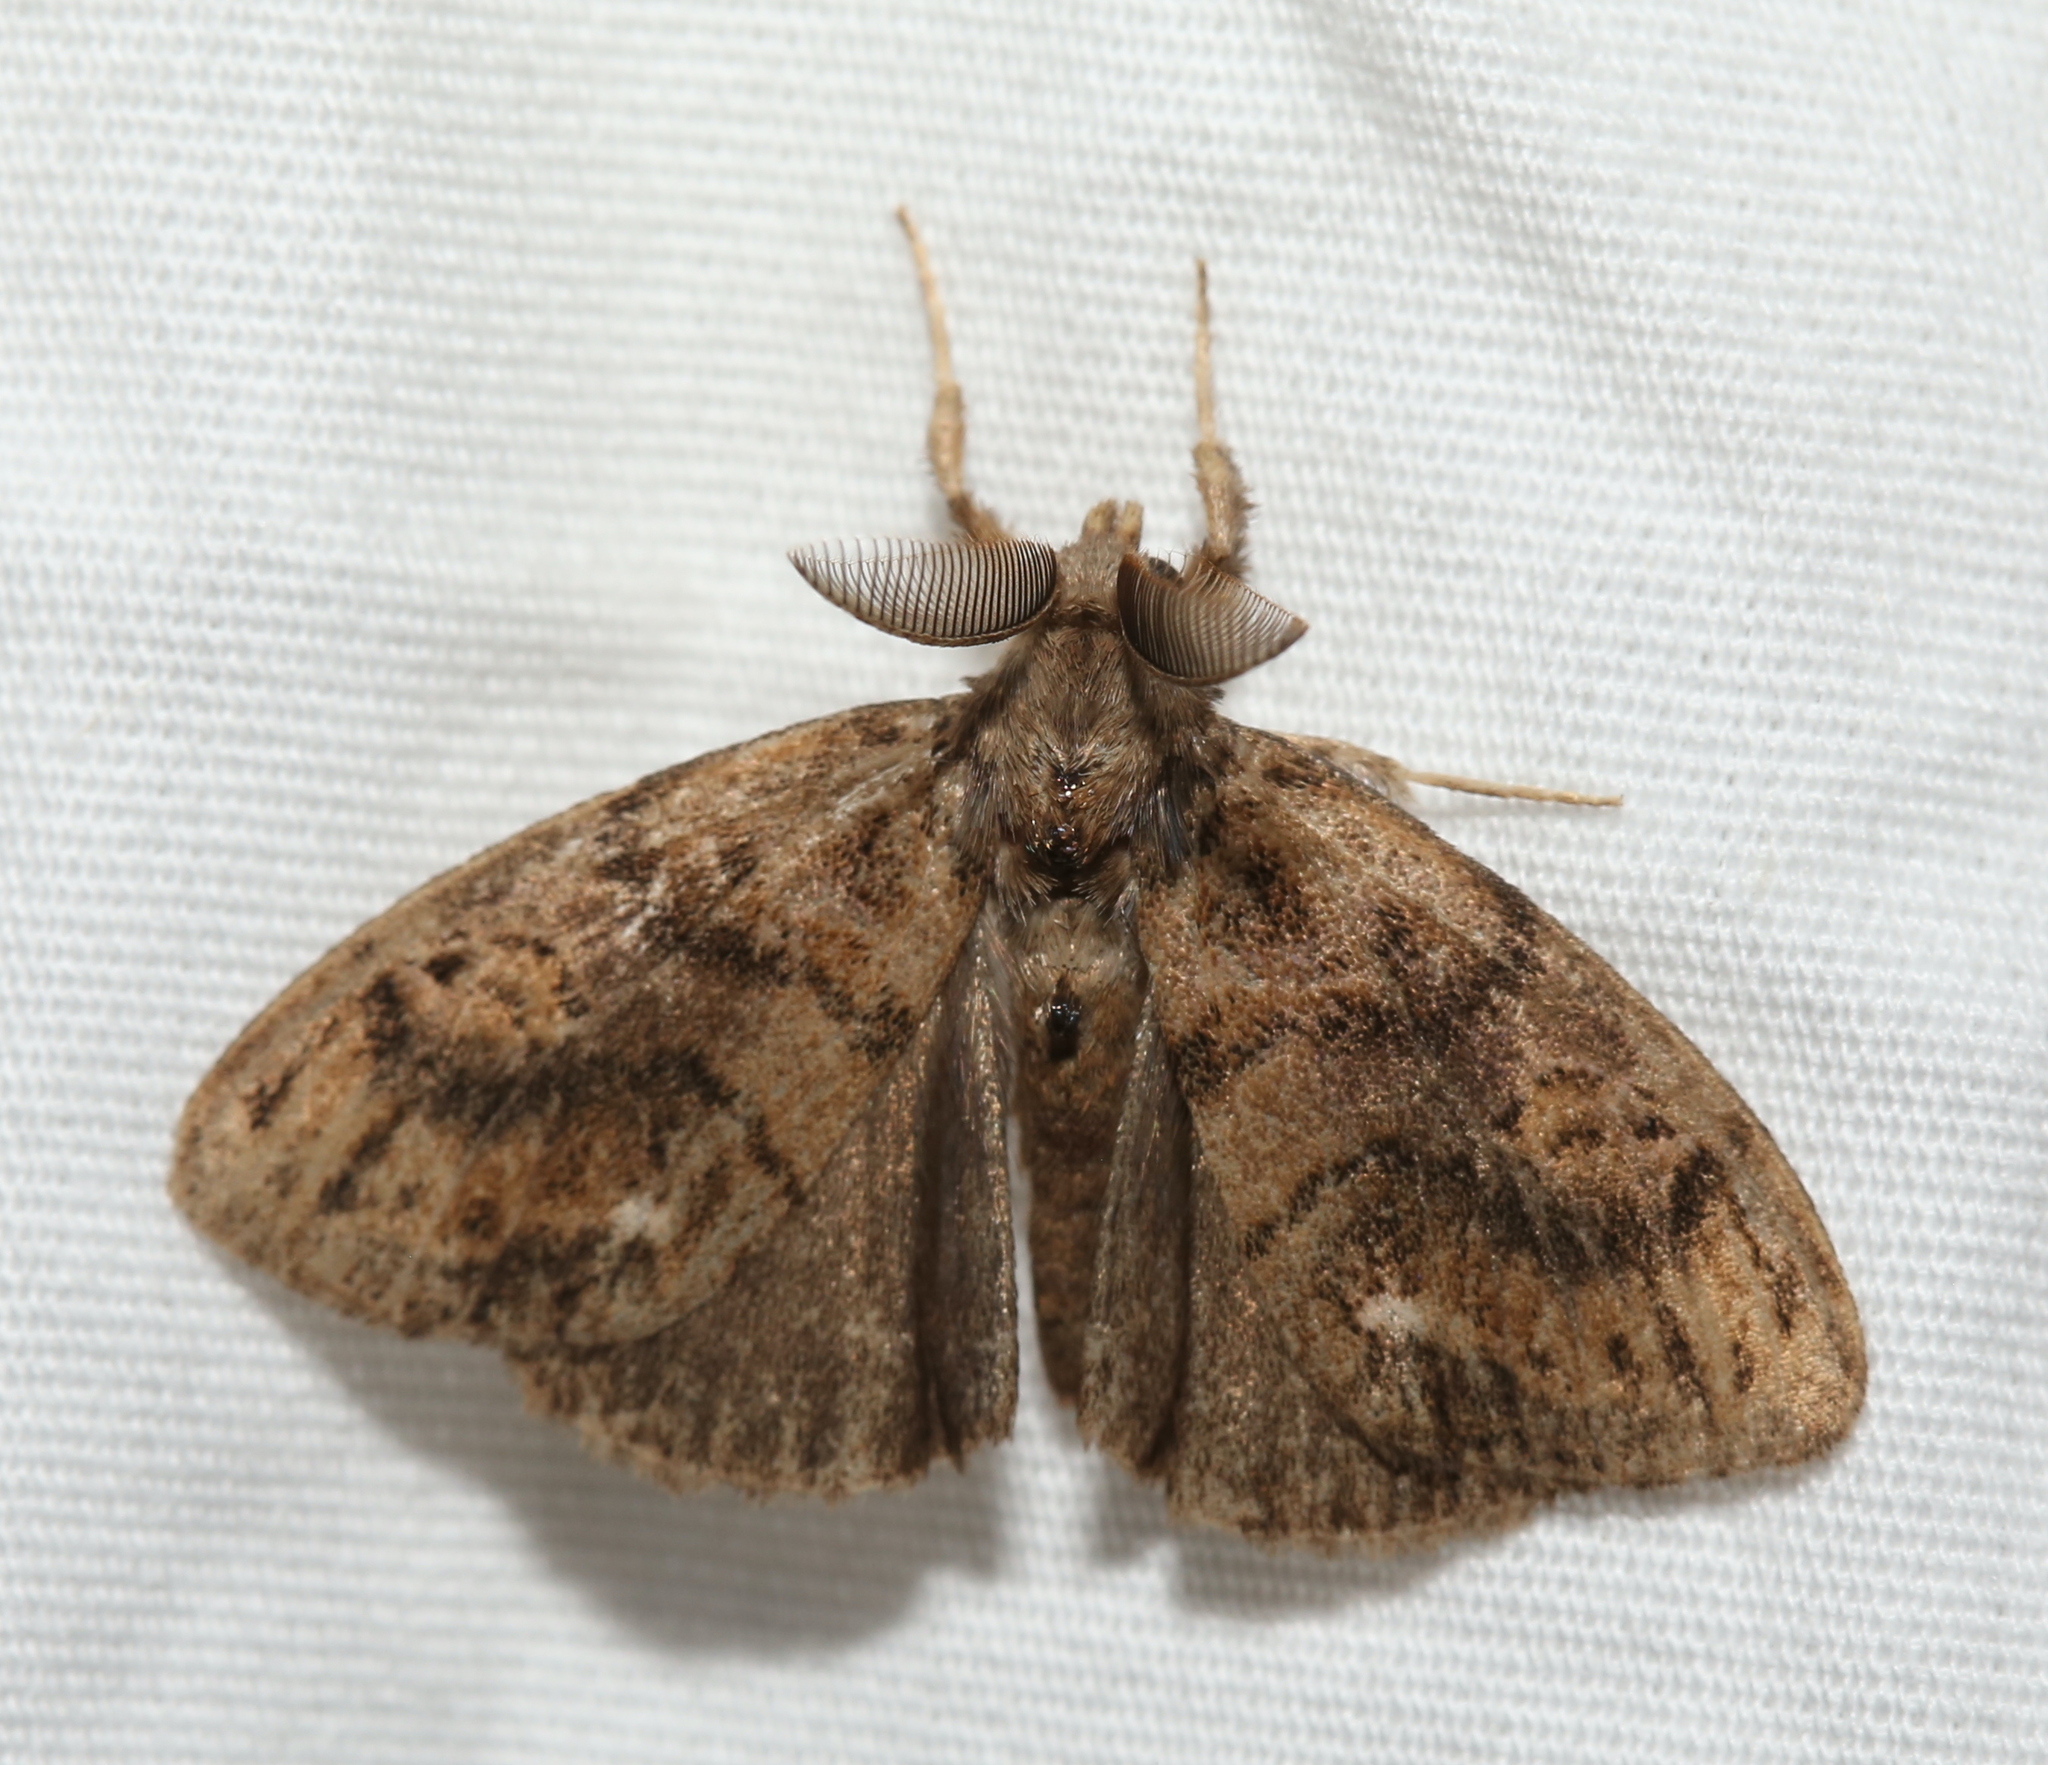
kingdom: Animalia
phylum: Arthropoda
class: Insecta
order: Lepidoptera
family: Erebidae
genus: Orgyia
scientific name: Orgyia definita
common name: Definite tussock moth
